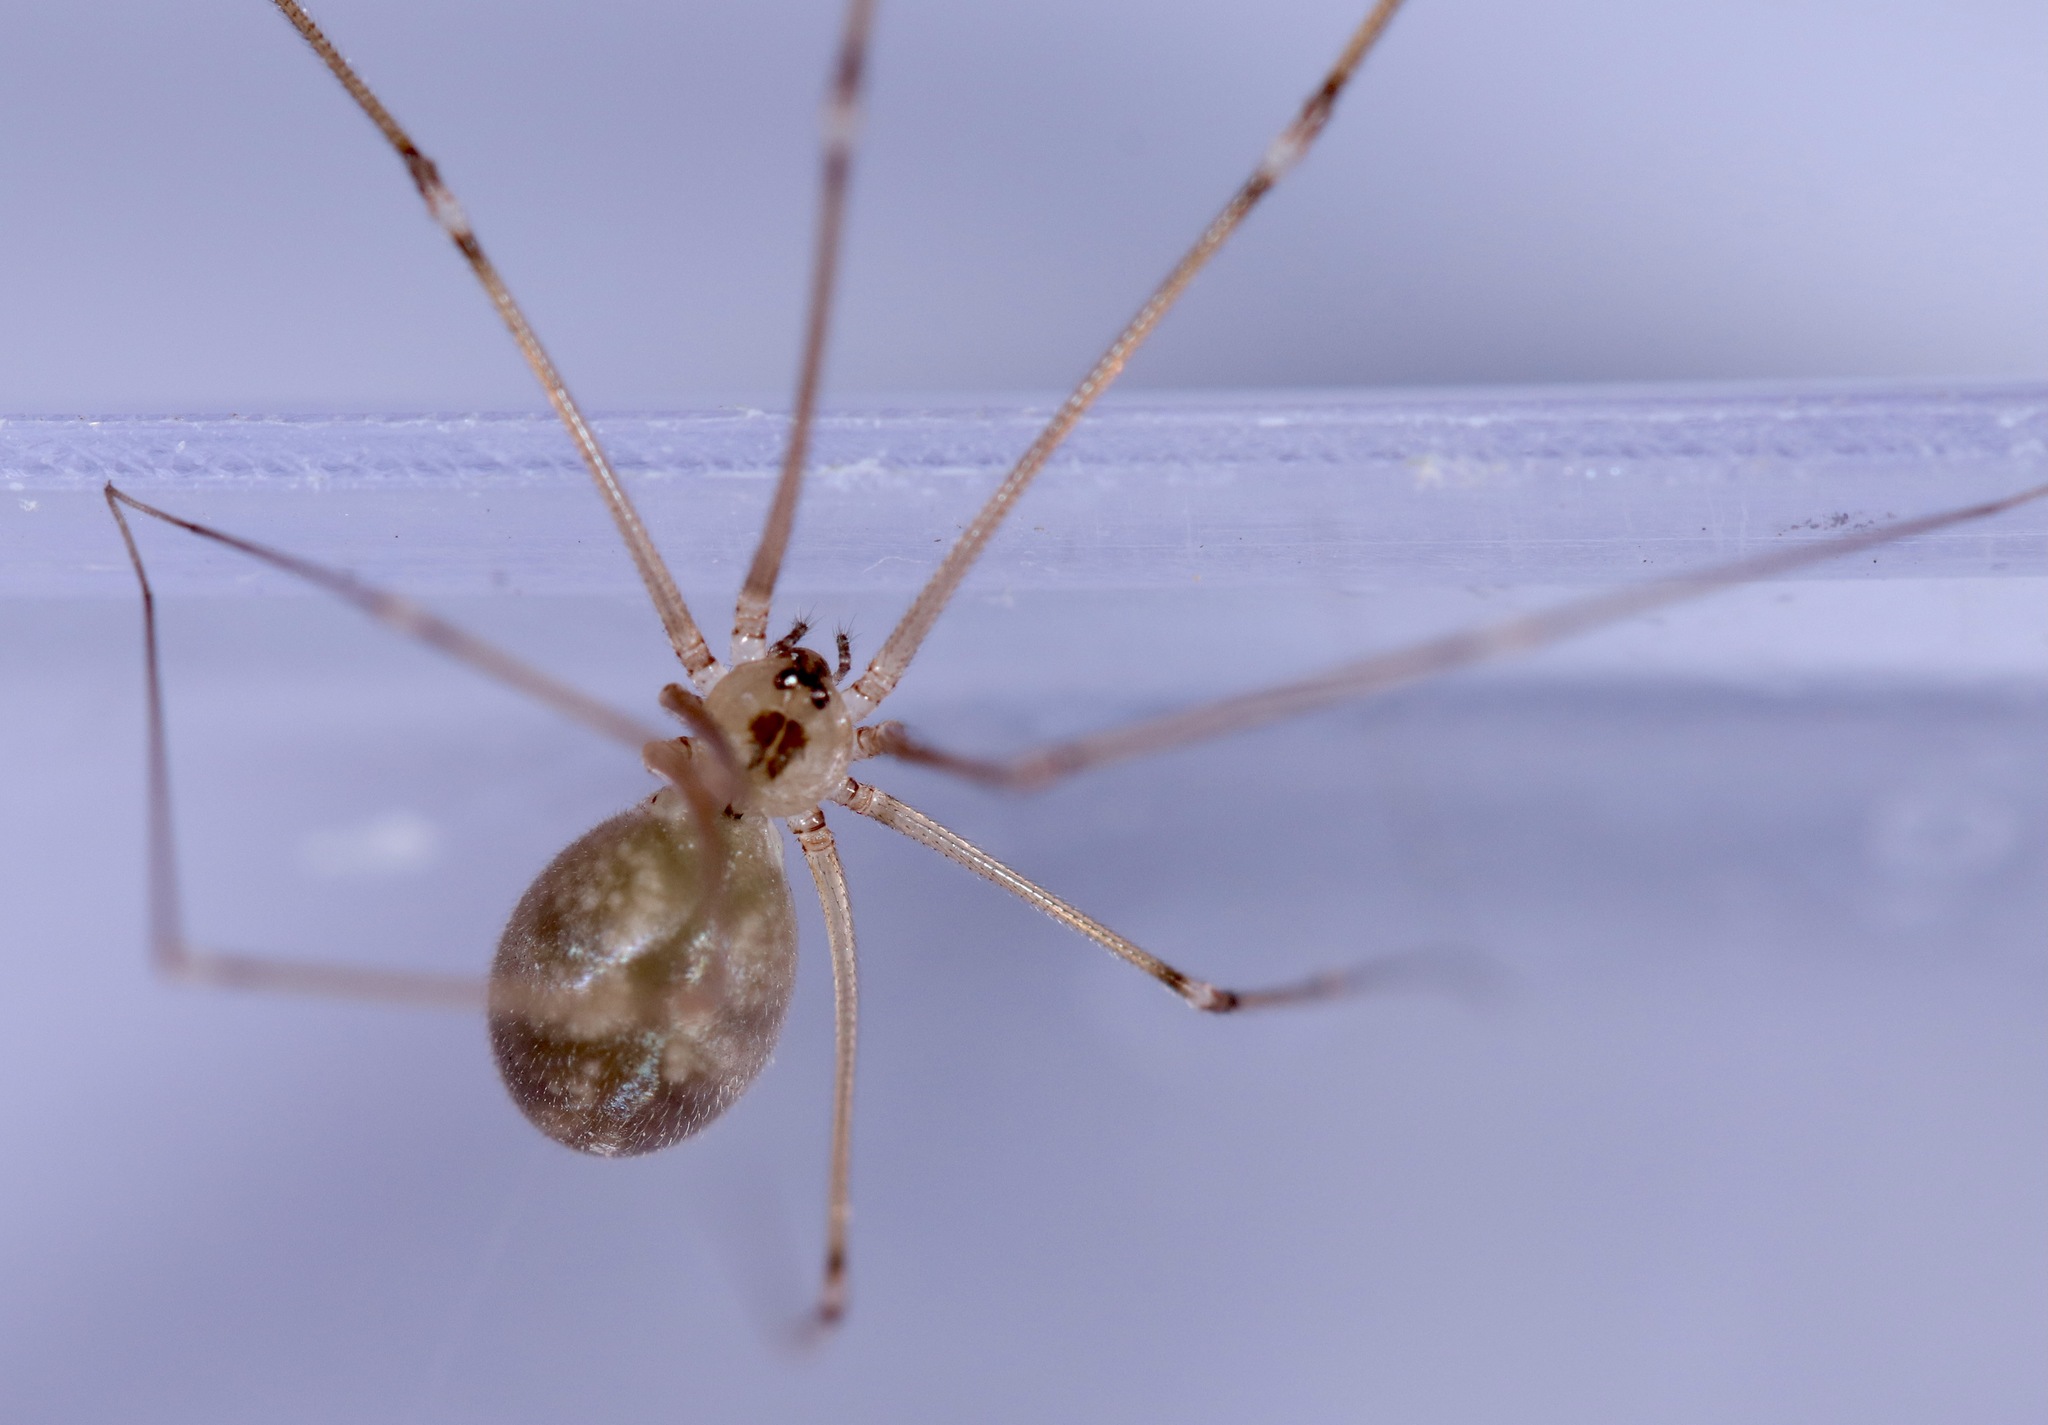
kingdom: Animalia
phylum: Arthropoda
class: Arachnida
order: Araneae
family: Pholcidae
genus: Pholcus
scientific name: Pholcus manueli
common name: Cellar spider
